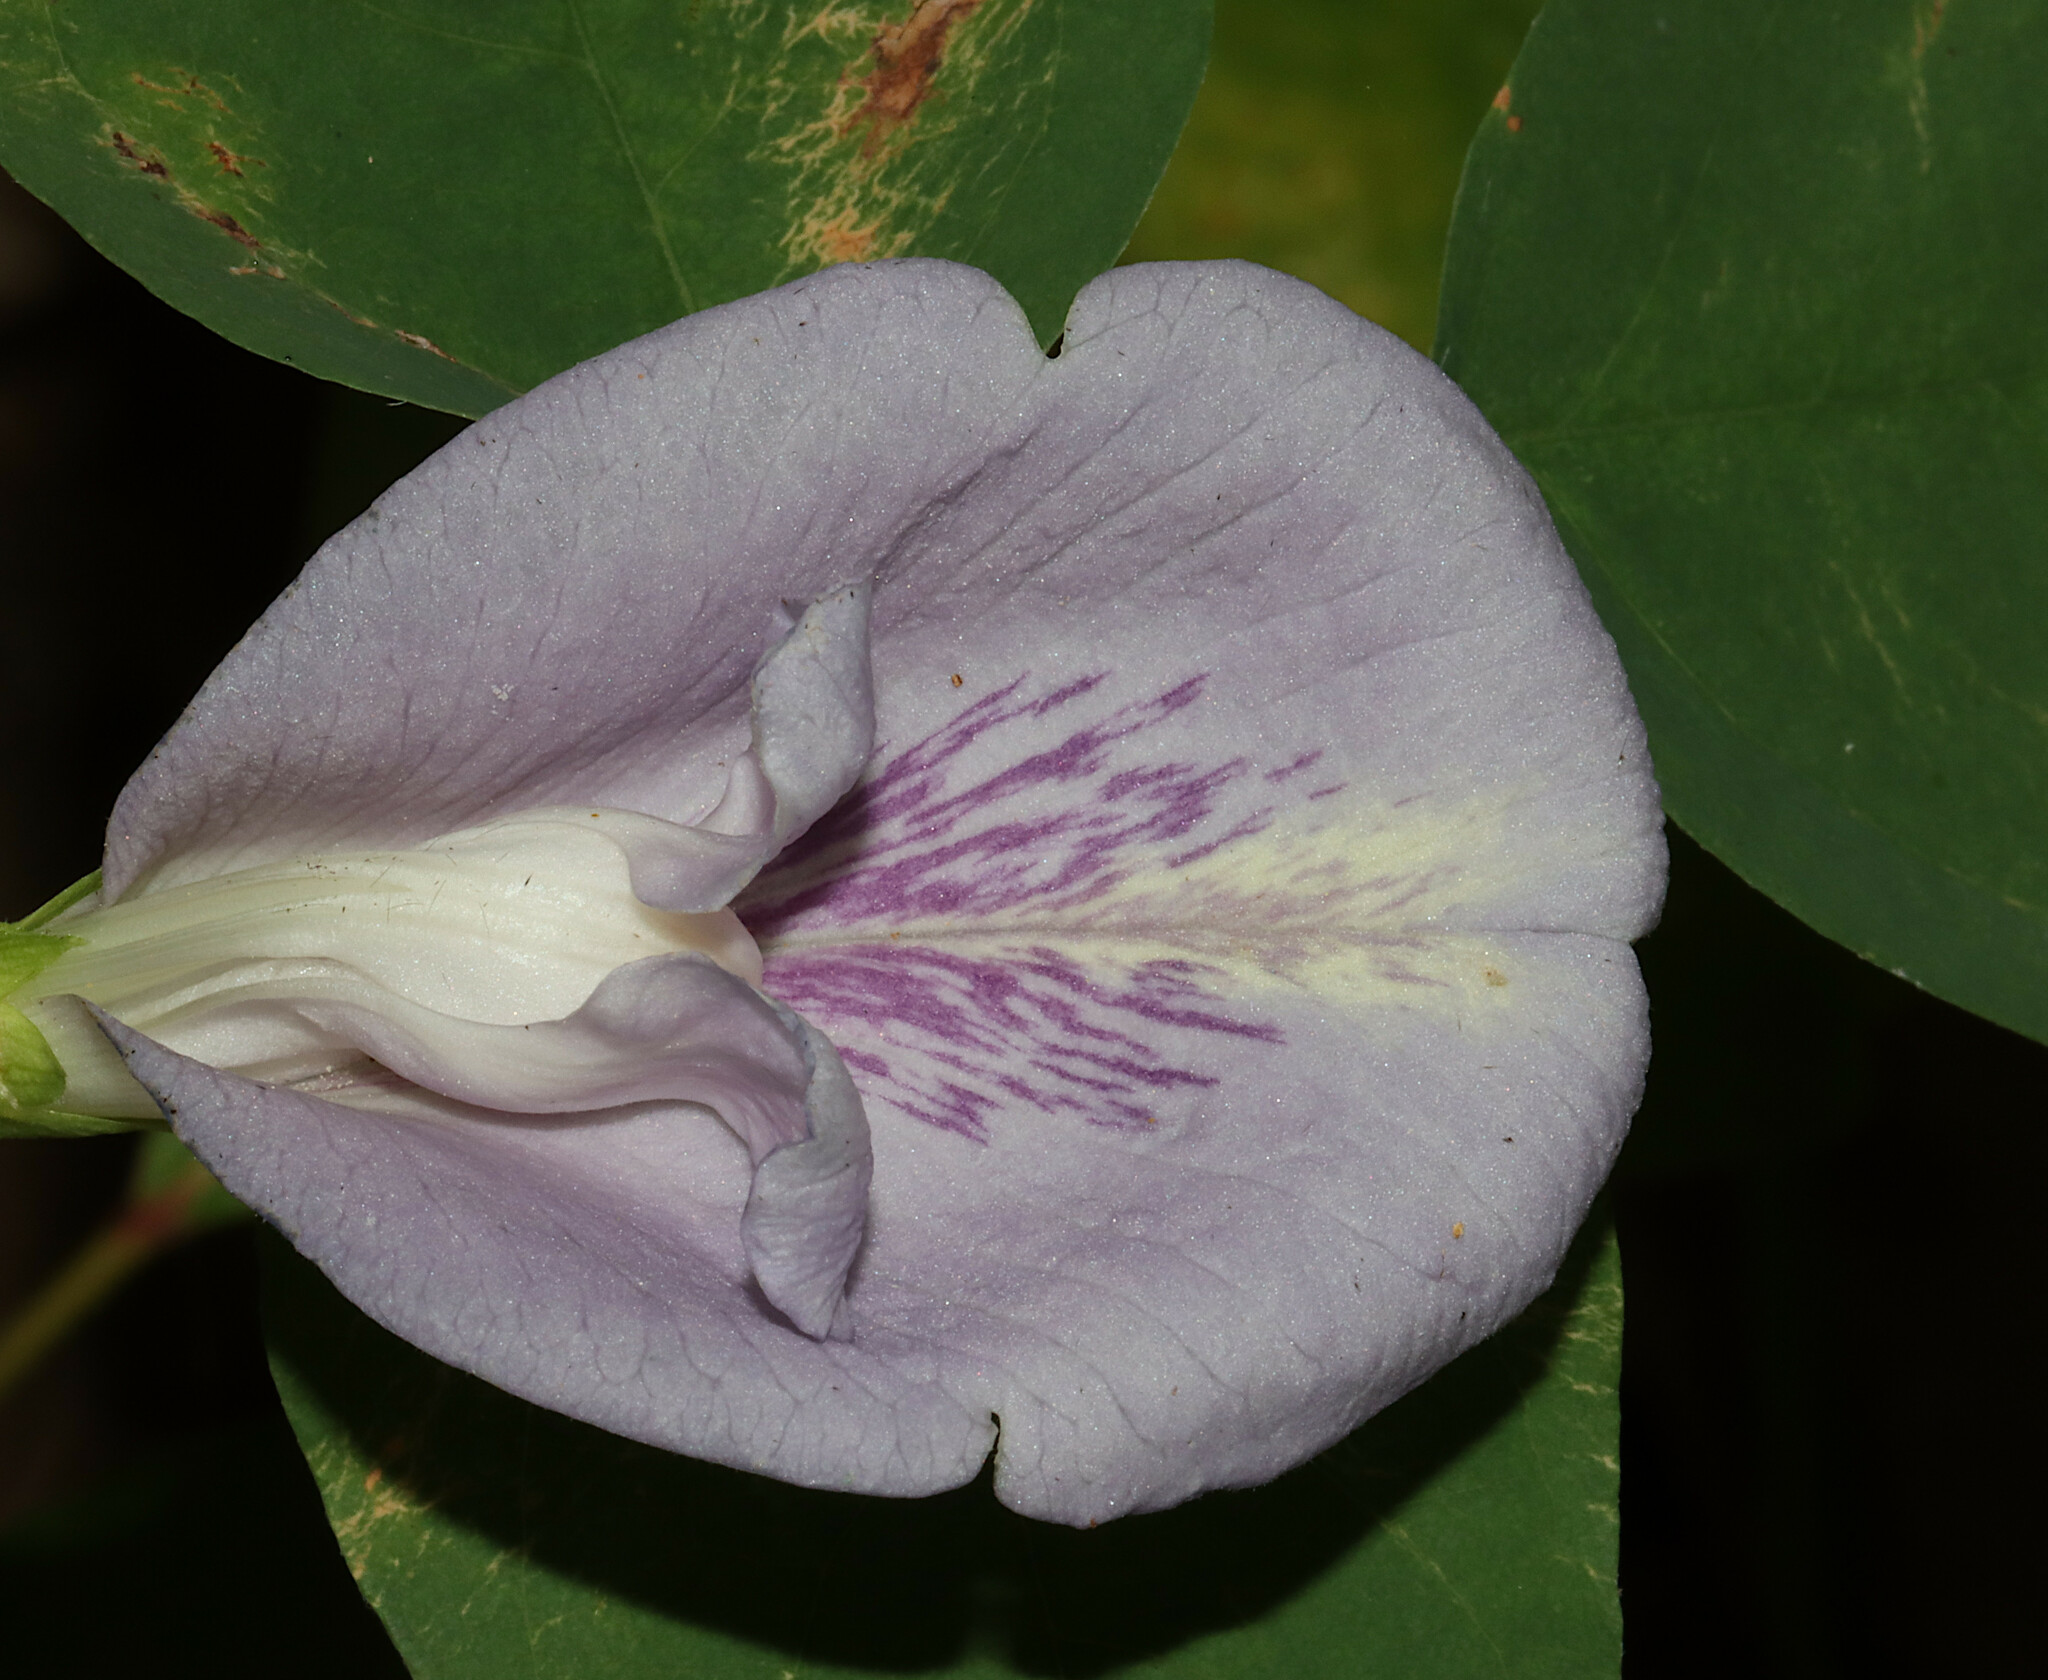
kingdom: Plantae
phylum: Tracheophyta
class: Magnoliopsida
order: Fabales
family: Fabaceae
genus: Clitoria
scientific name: Clitoria mariana
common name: Butterfly-pea
